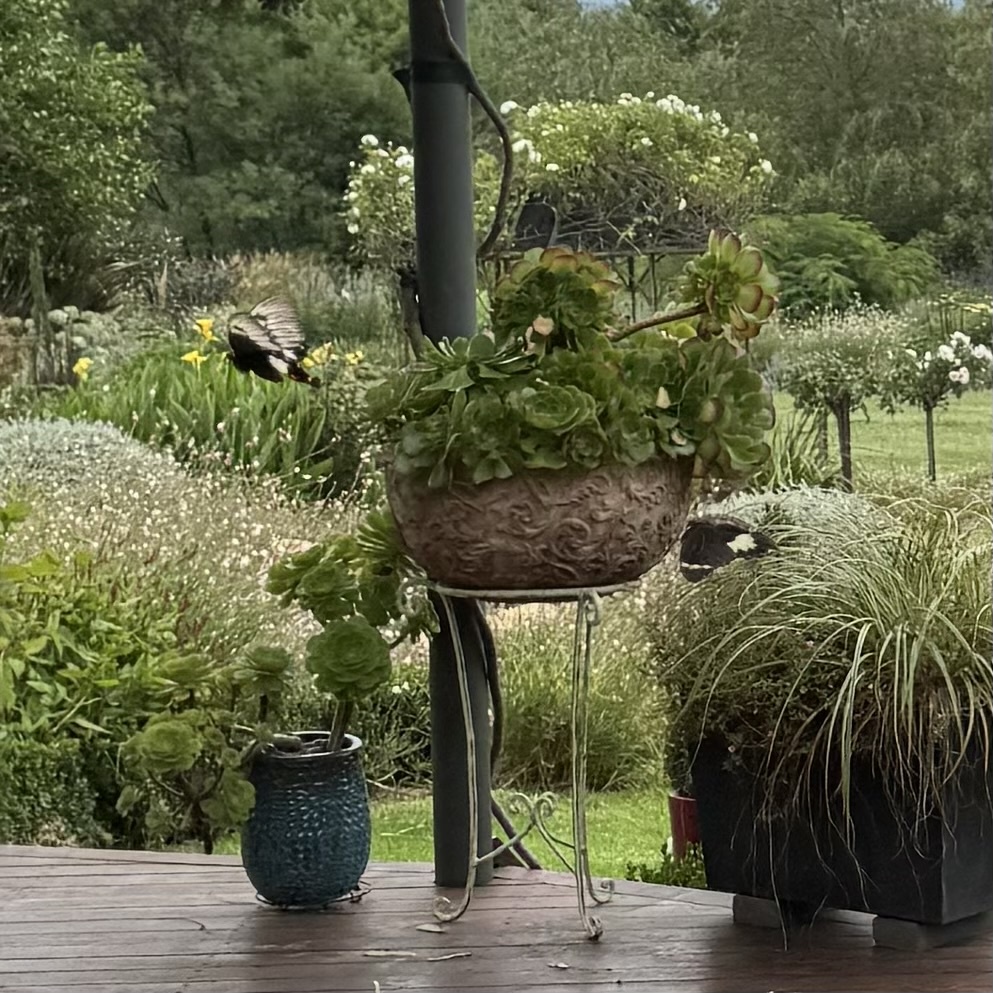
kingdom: Animalia
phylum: Arthropoda
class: Insecta
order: Lepidoptera
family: Papilionidae
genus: Papilio
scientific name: Papilio aegeus
